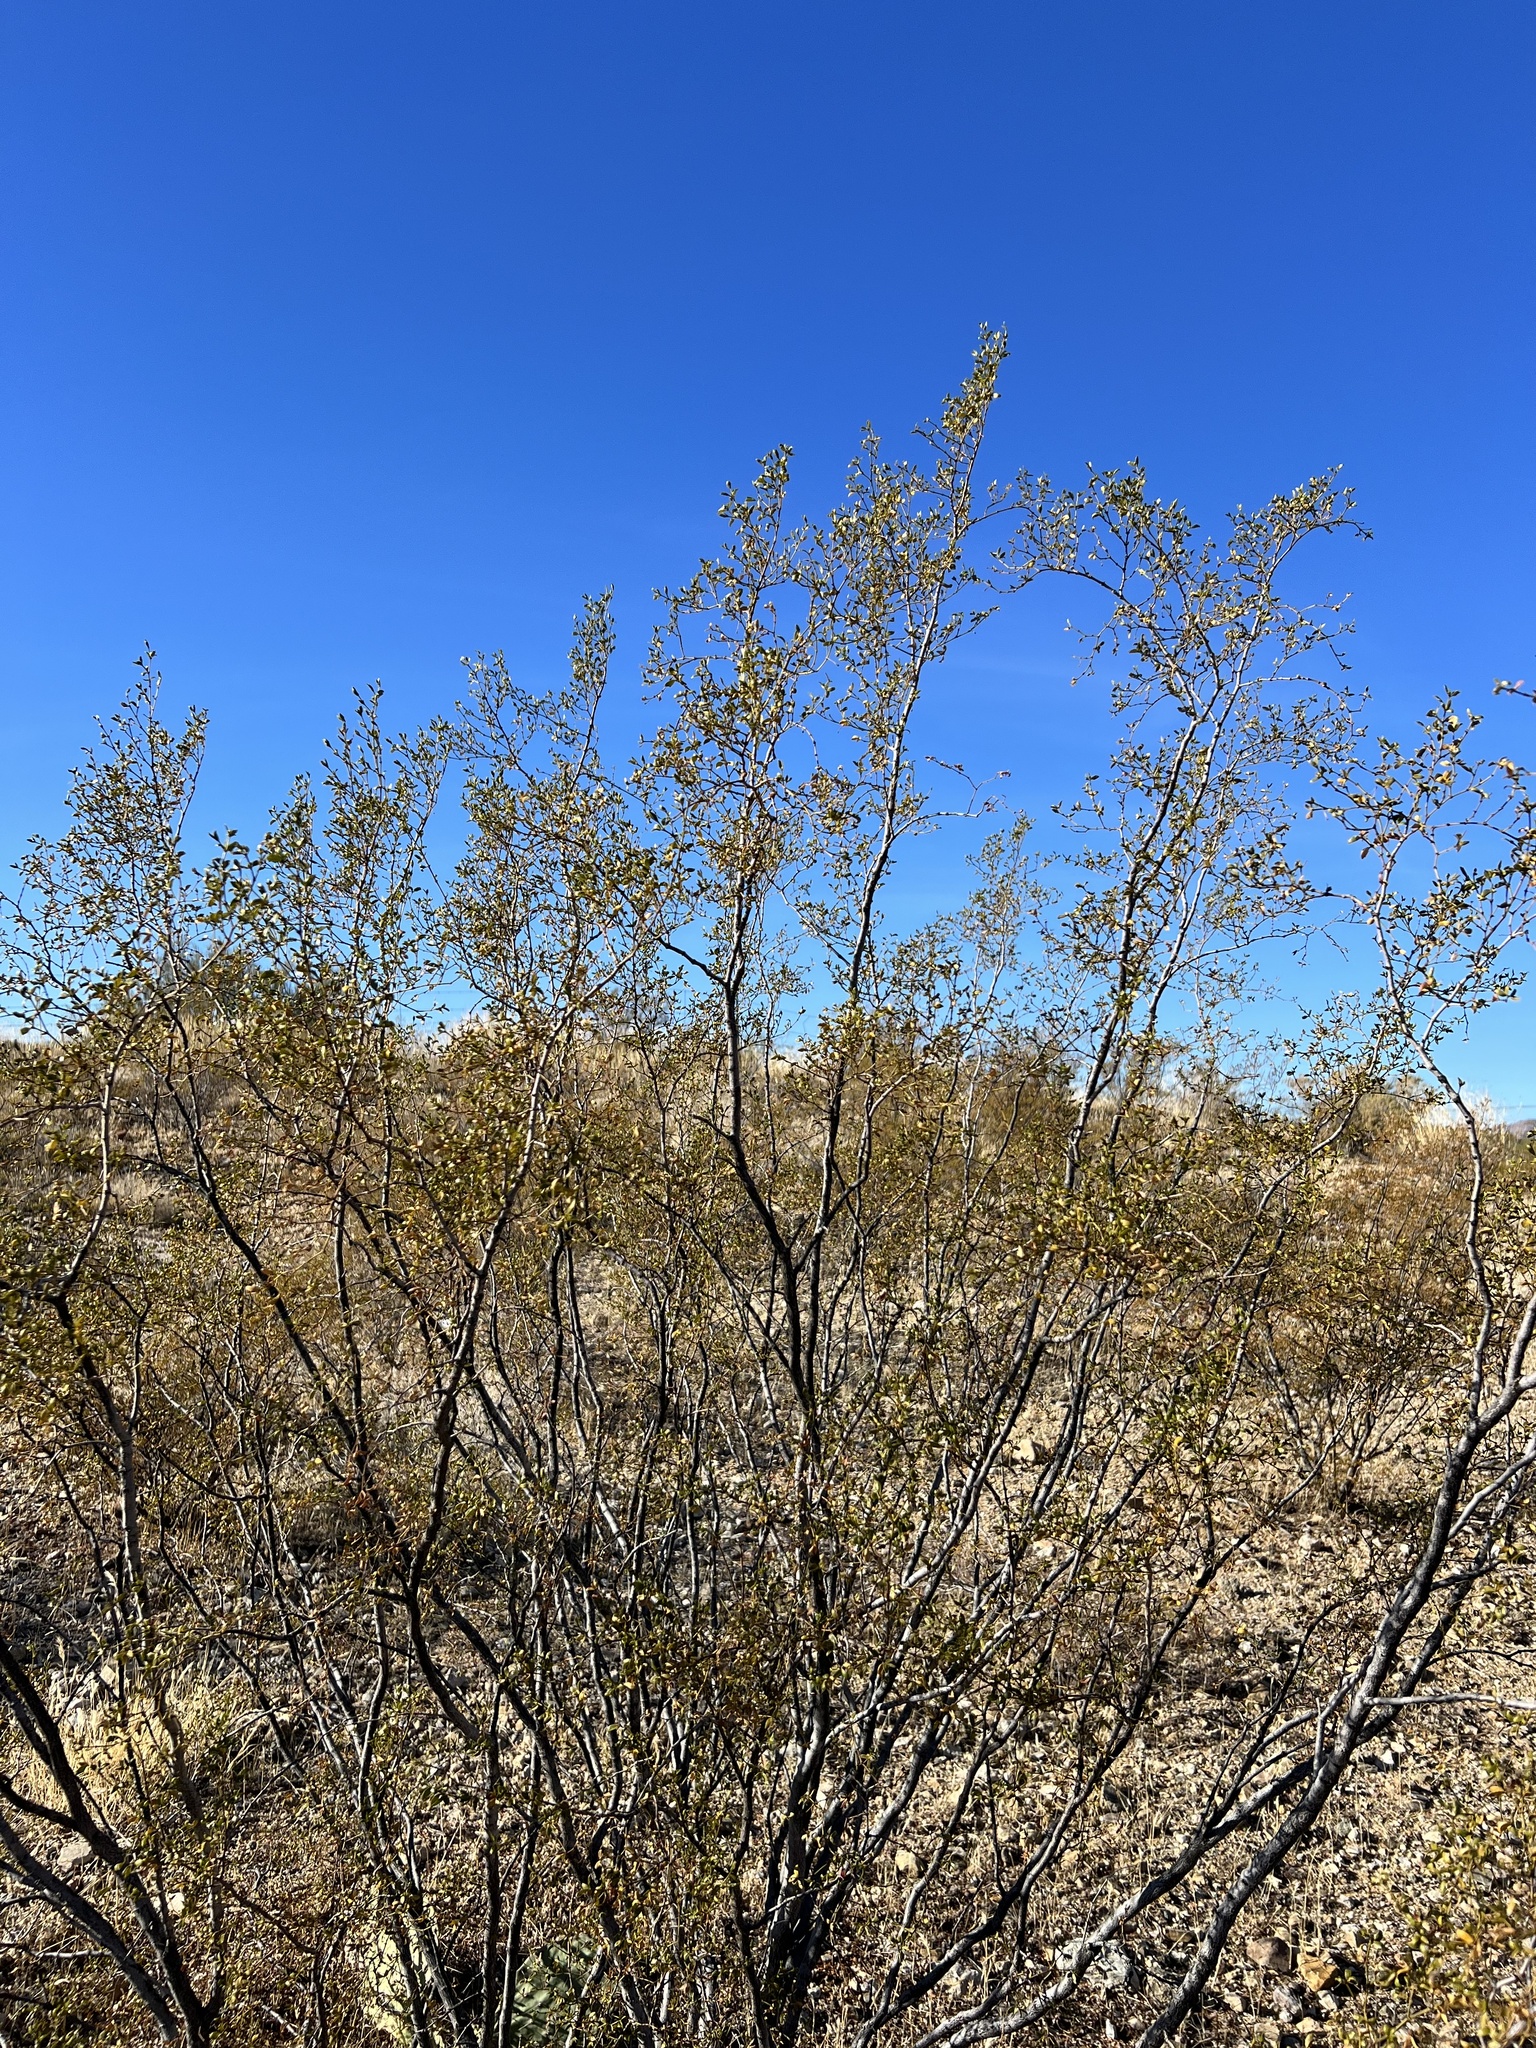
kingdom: Plantae
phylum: Tracheophyta
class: Magnoliopsida
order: Zygophyllales
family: Zygophyllaceae
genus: Larrea
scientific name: Larrea tridentata
